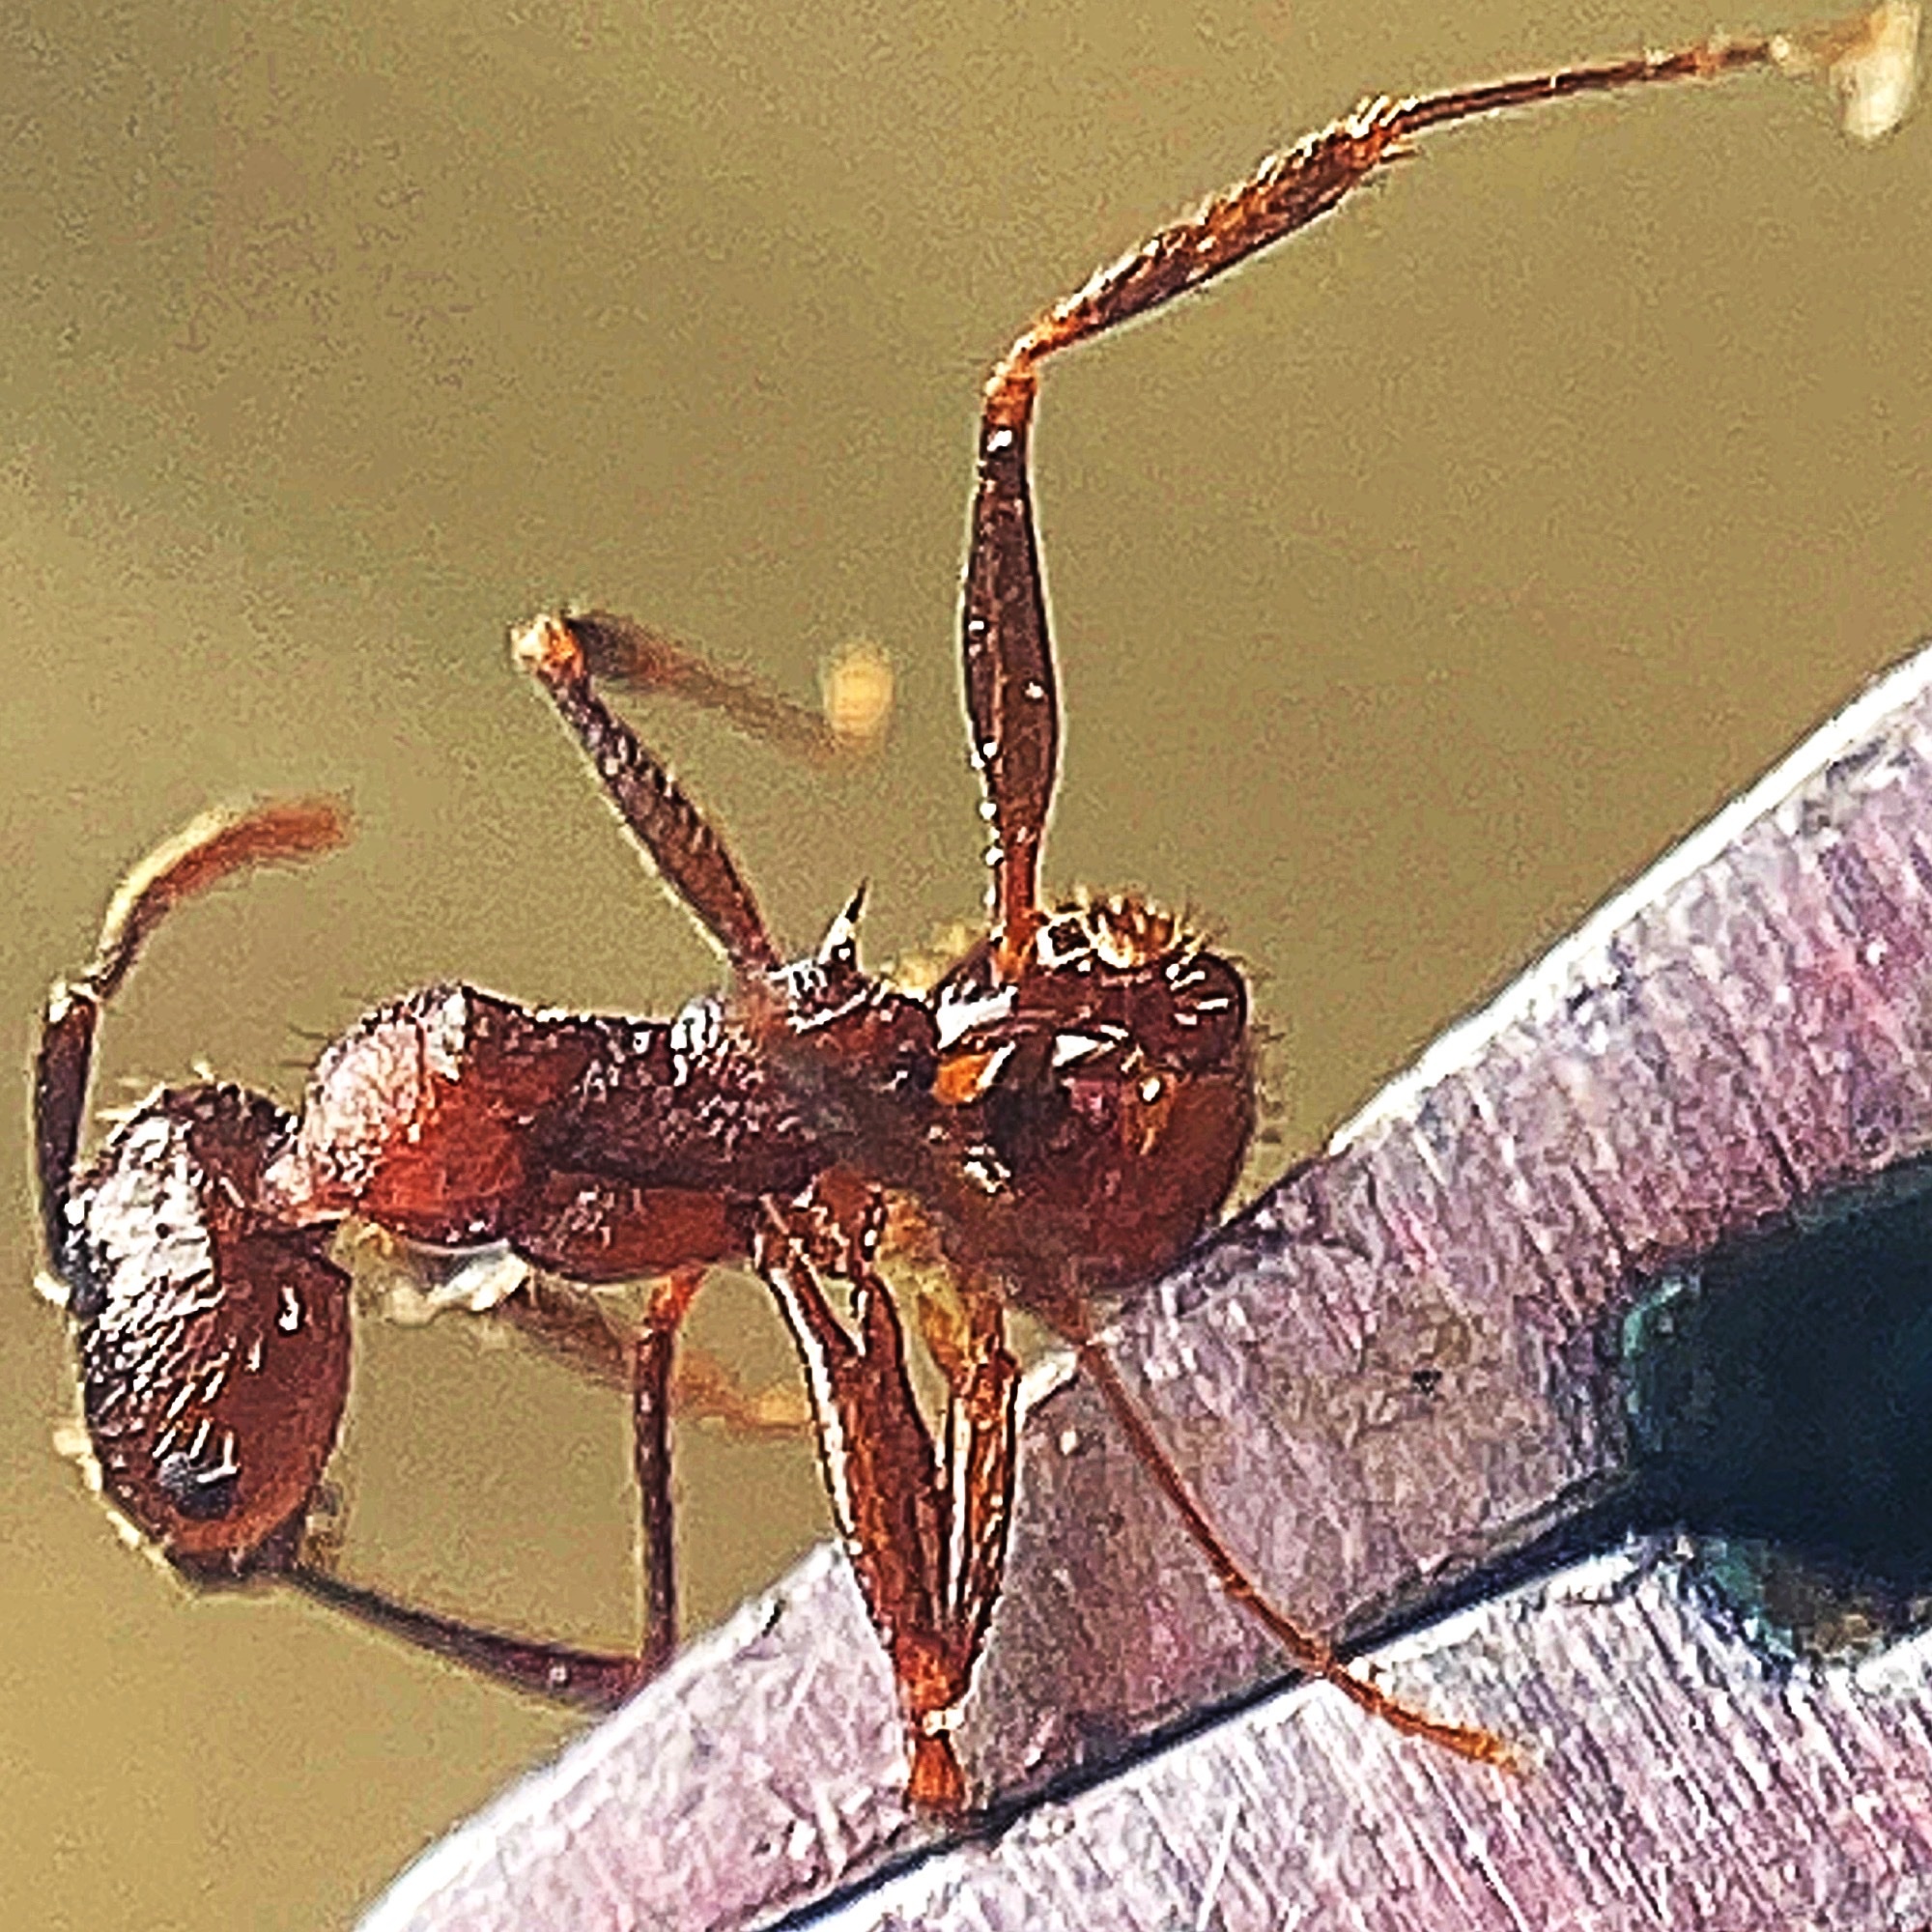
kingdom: Animalia
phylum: Arthropoda
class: Insecta
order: Hymenoptera
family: Formicidae
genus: Aphaenogaster
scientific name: Aphaenogaster fulva
